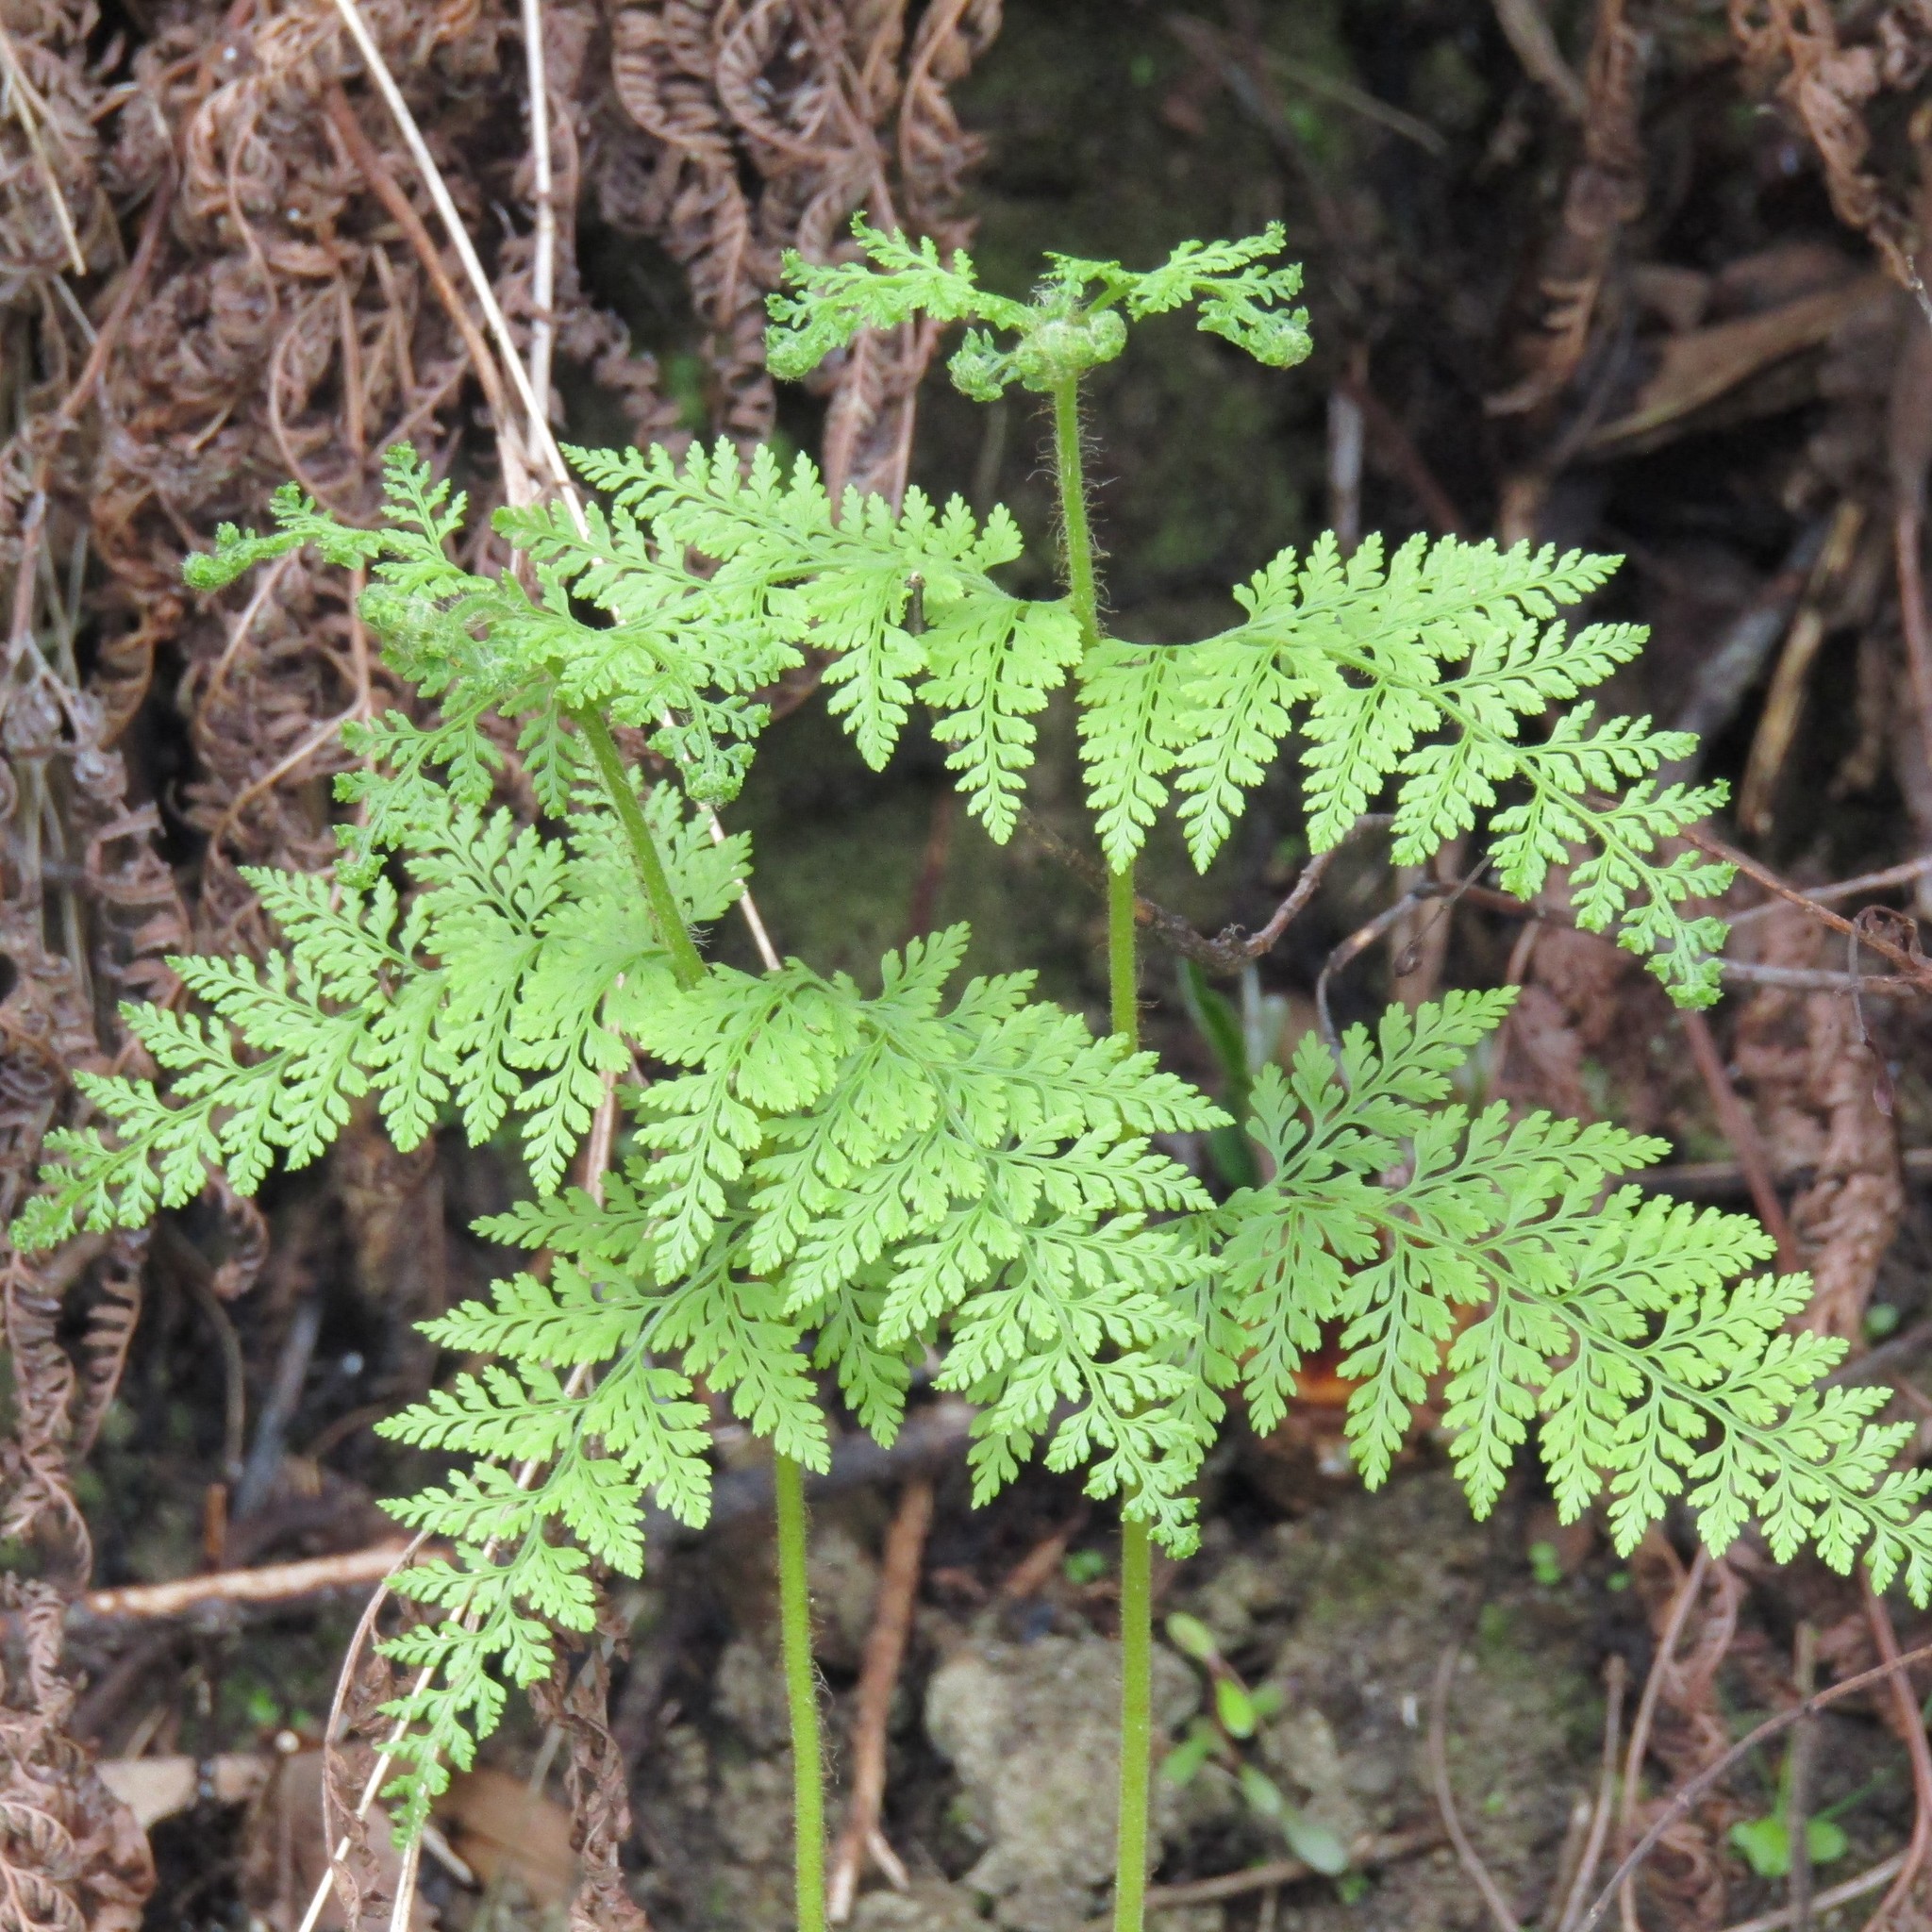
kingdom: Plantae
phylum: Tracheophyta
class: Polypodiopsida
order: Polypodiales
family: Dennstaedtiaceae
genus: Paesia
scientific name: Paesia scaberula
